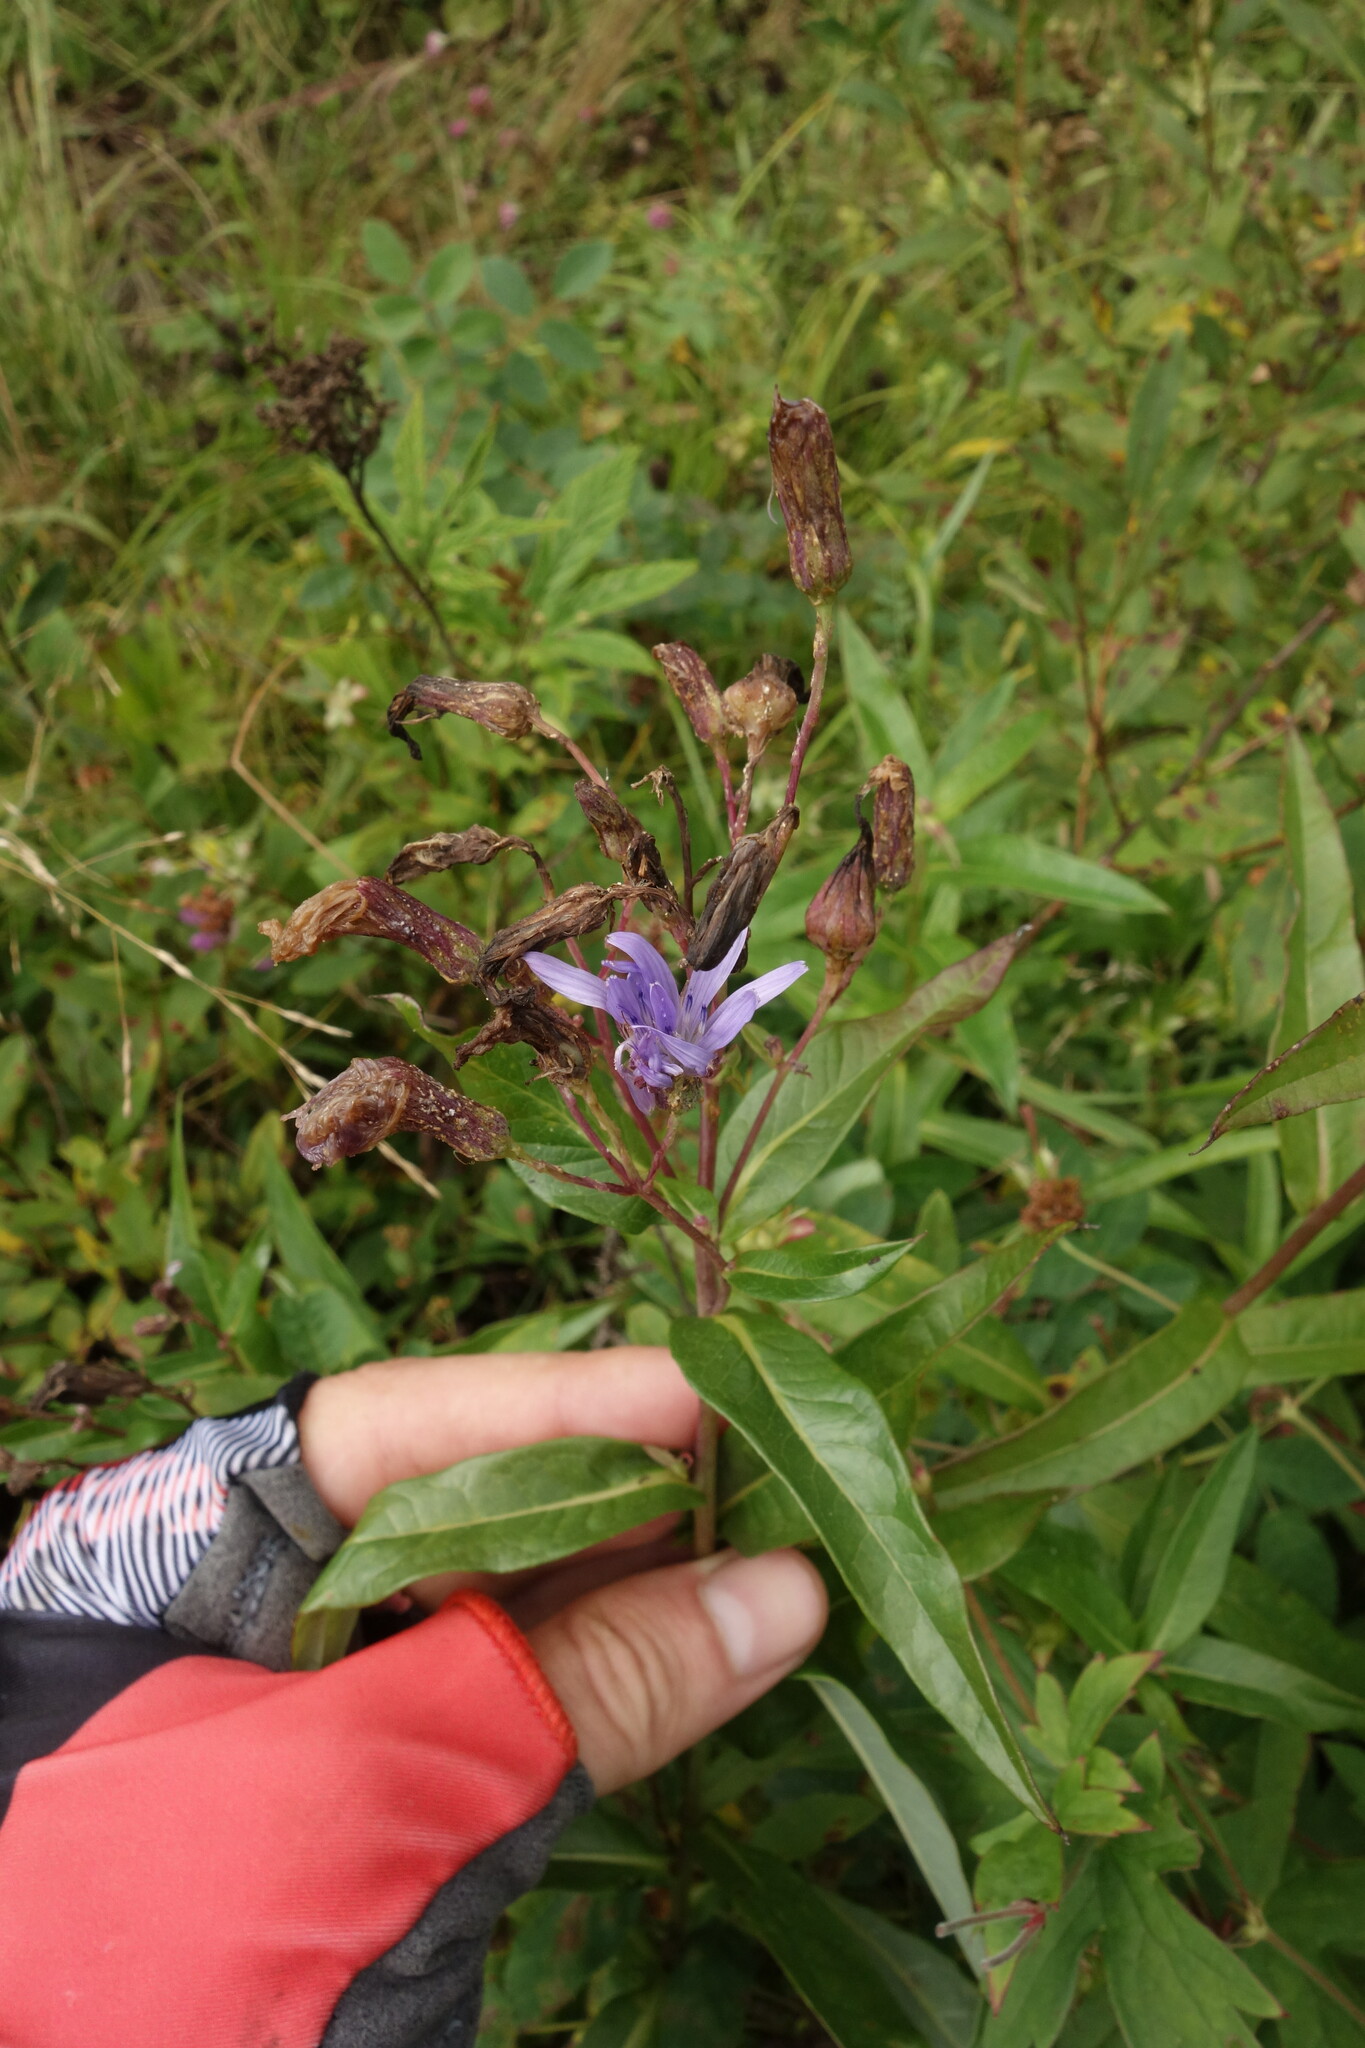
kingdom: Plantae
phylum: Tracheophyta
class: Magnoliopsida
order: Asterales
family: Asteraceae
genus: Lactuca
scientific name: Lactuca sibirica
